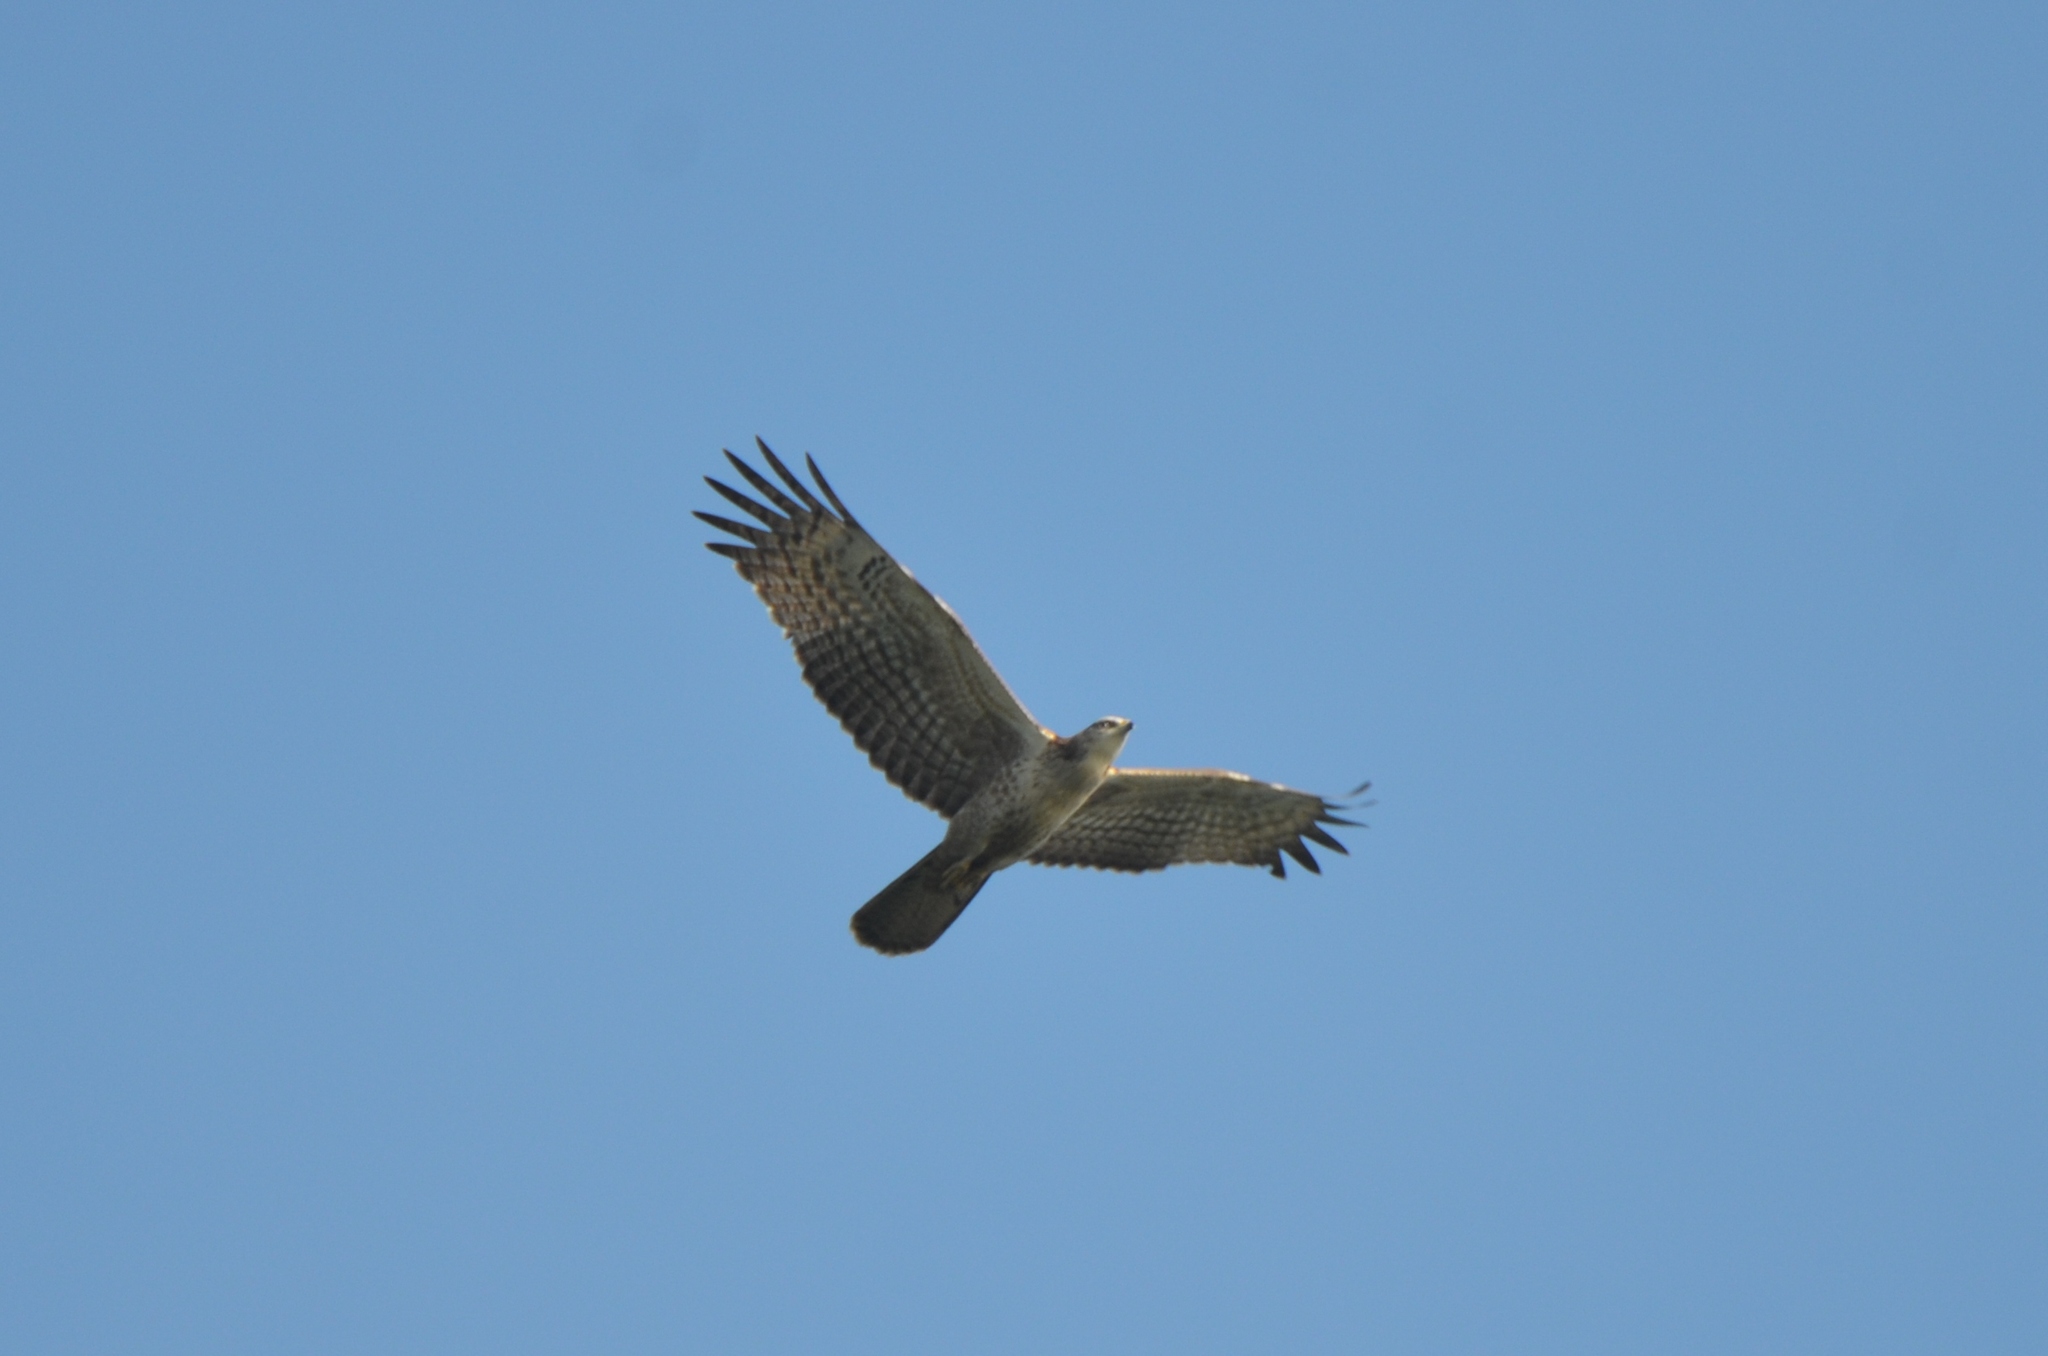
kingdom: Animalia
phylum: Chordata
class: Aves
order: Accipitriformes
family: Accipitridae
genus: Pernis
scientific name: Pernis ptilorhynchus
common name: Crested honey buzzard
